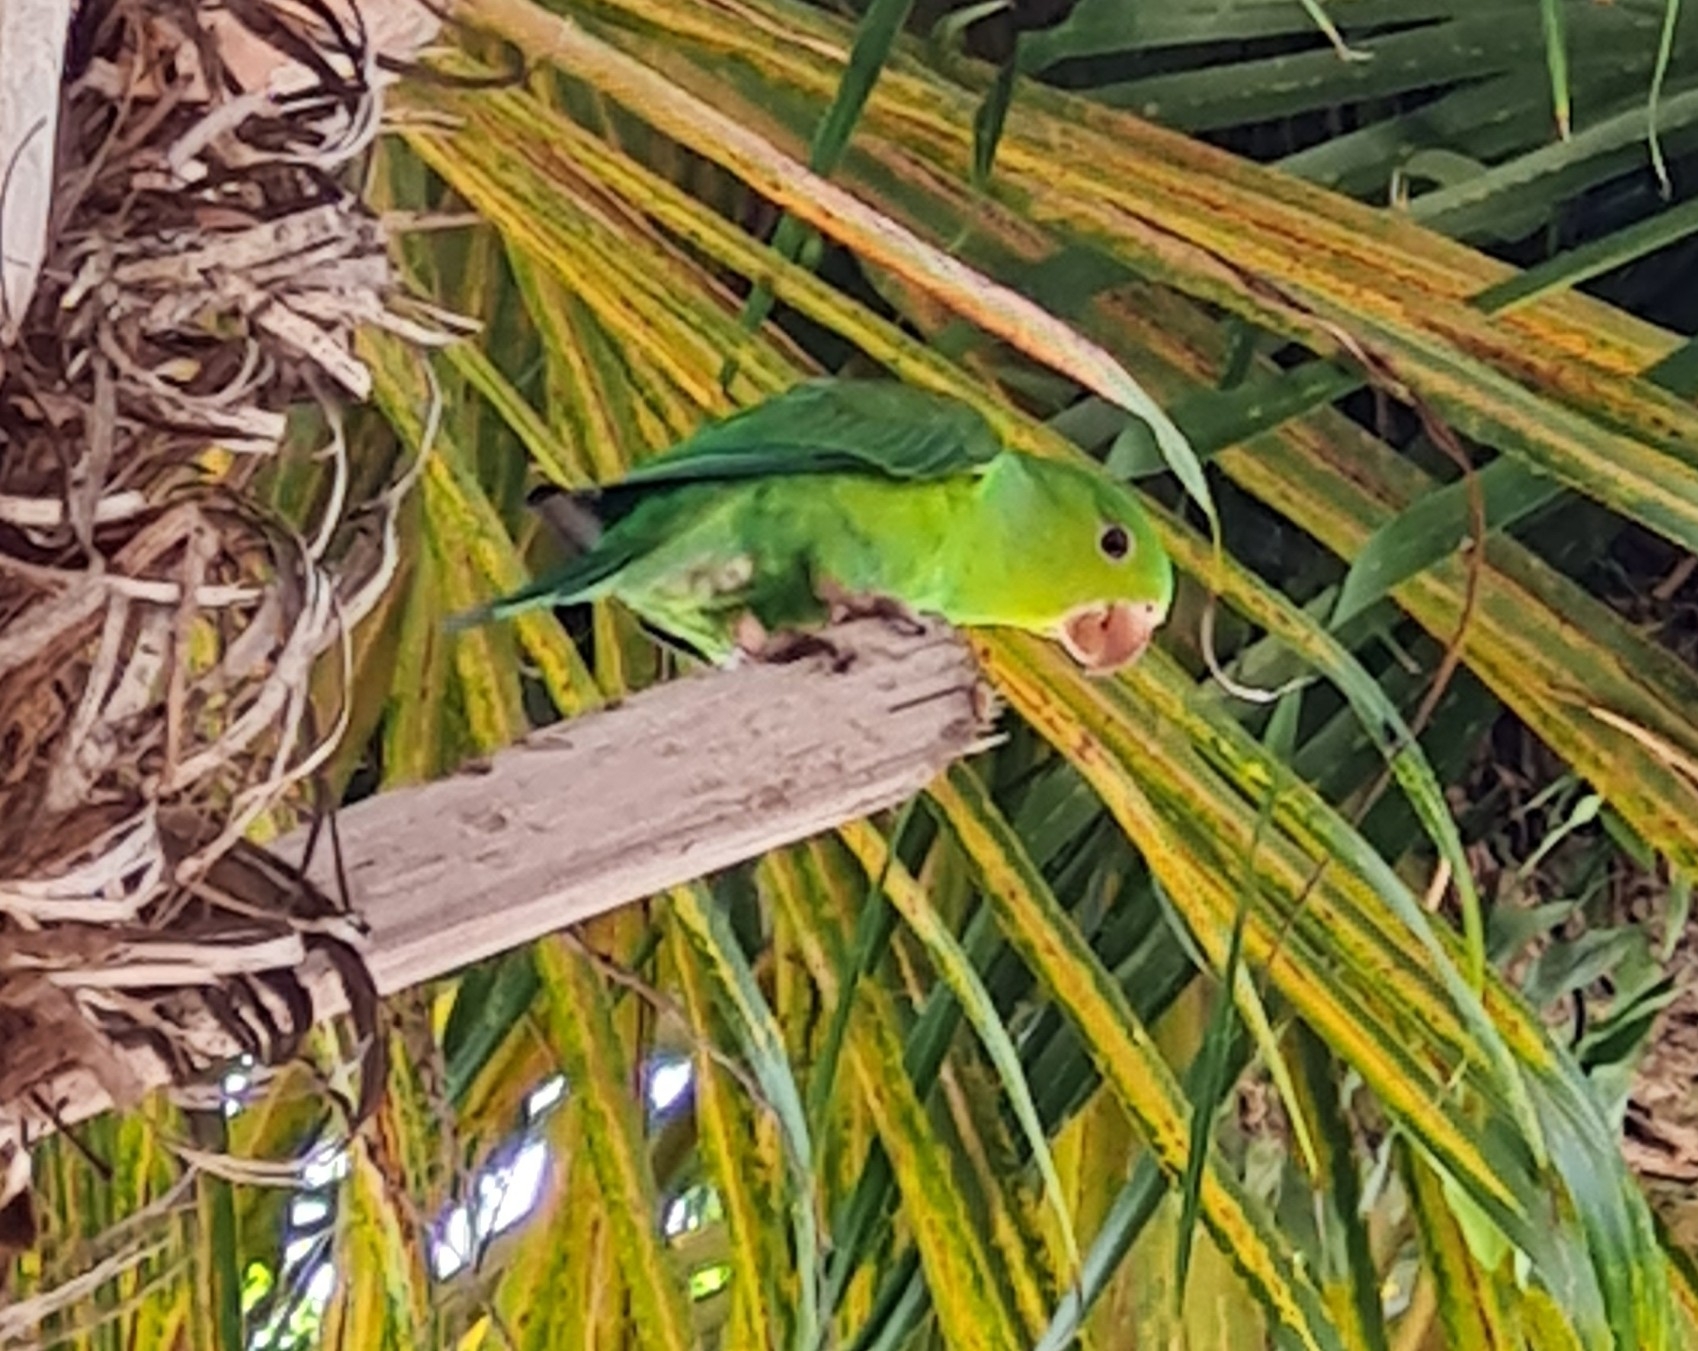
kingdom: Animalia
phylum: Chordata
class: Aves
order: Psittaciformes
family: Psittacidae
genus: Brotogeris
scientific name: Brotogeris tirica
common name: Plain parakeet
